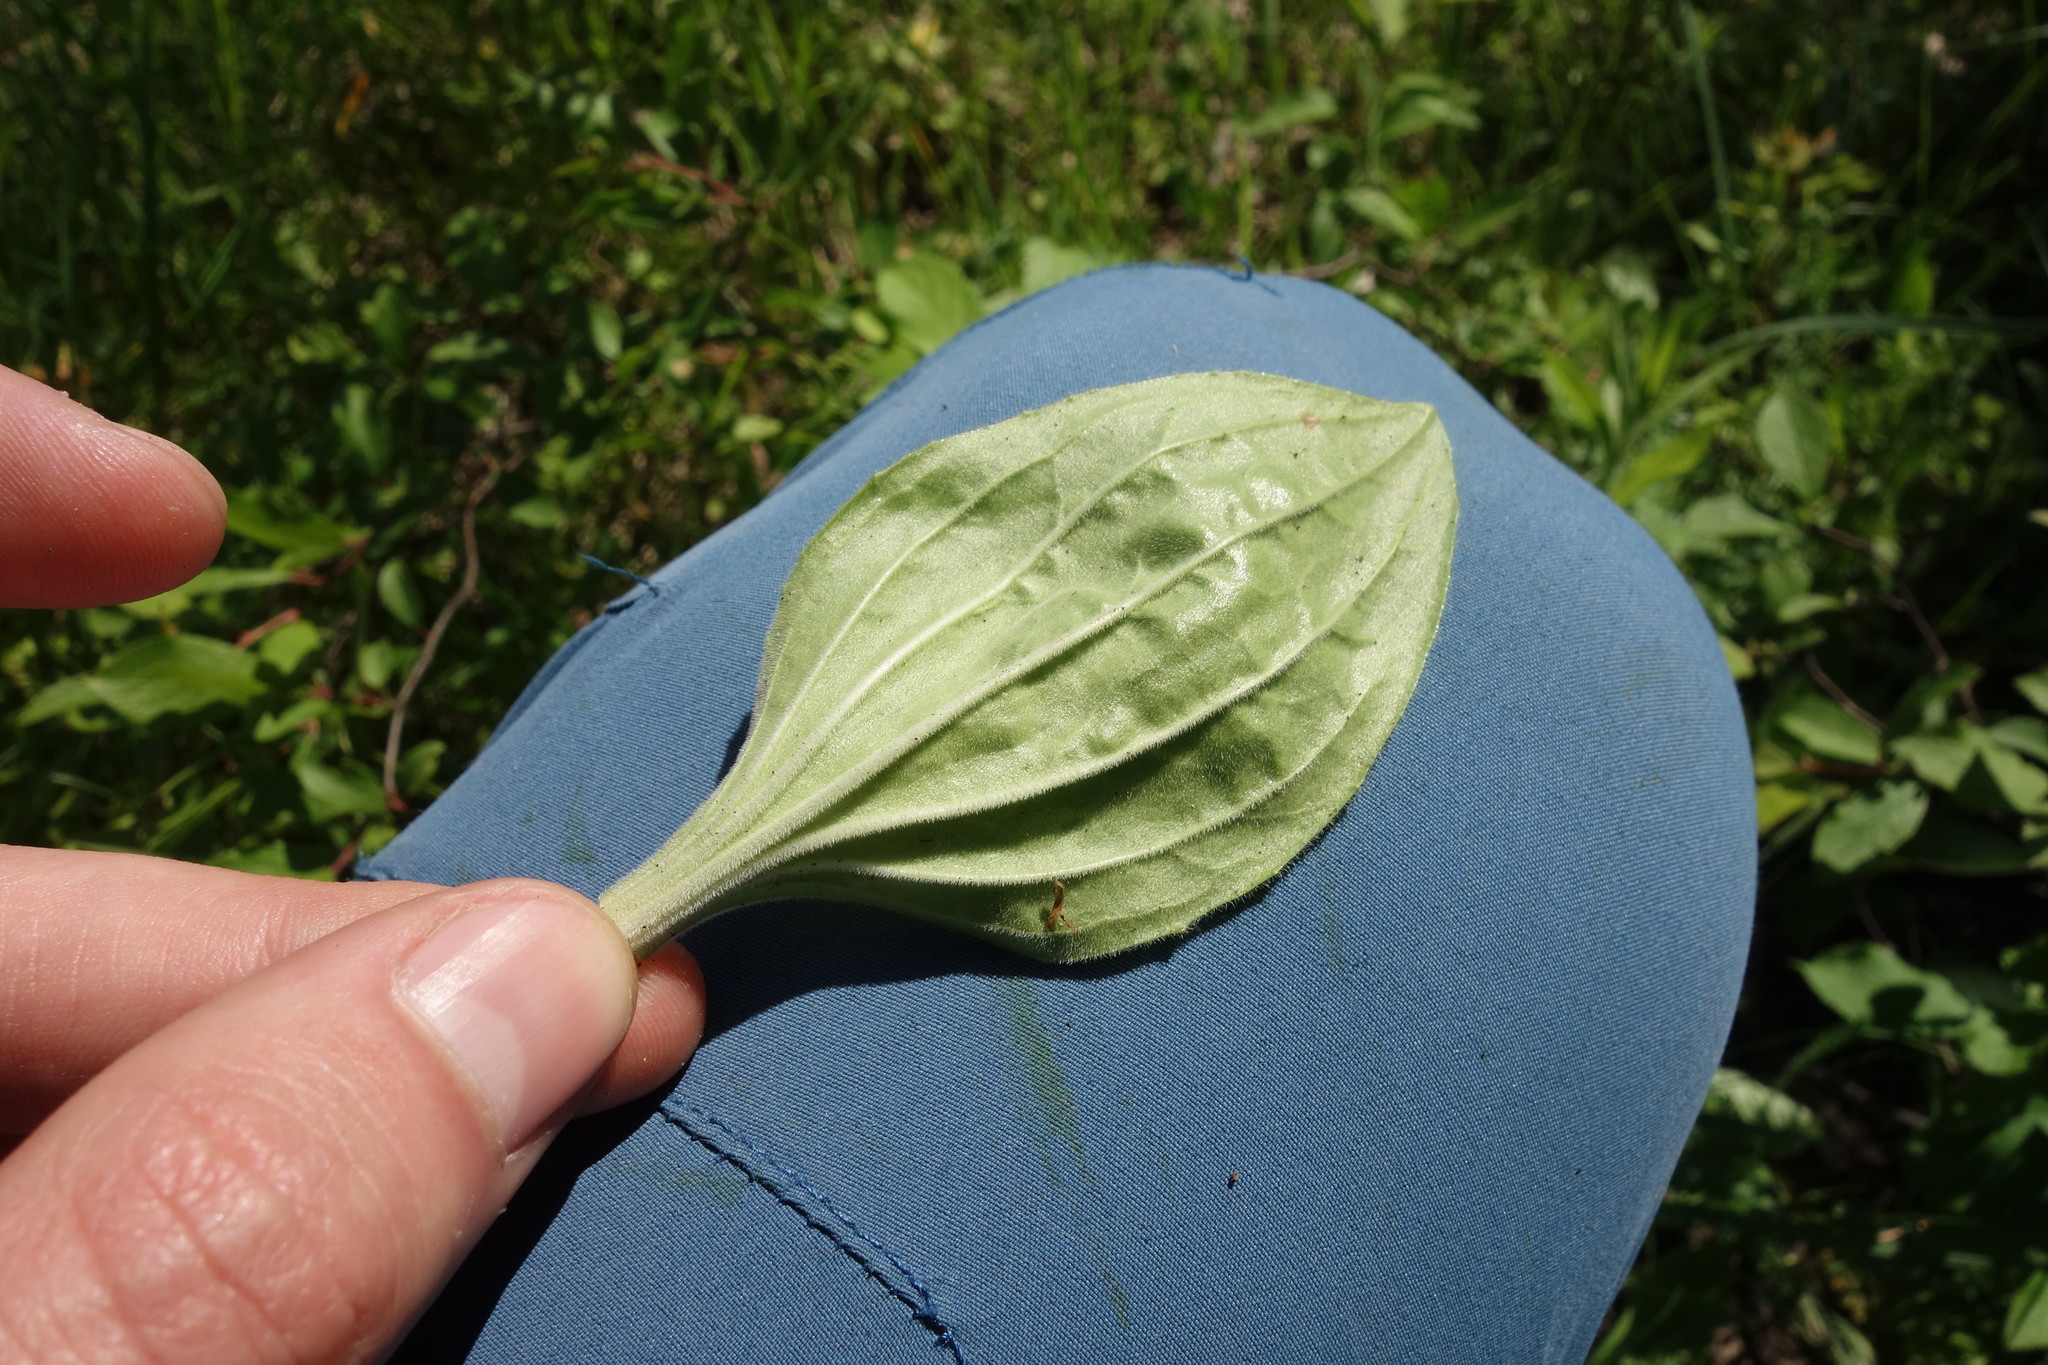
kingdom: Plantae
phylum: Tracheophyta
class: Magnoliopsida
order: Lamiales
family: Plantaginaceae
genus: Plantago
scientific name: Plantago media
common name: Hoary plantain
